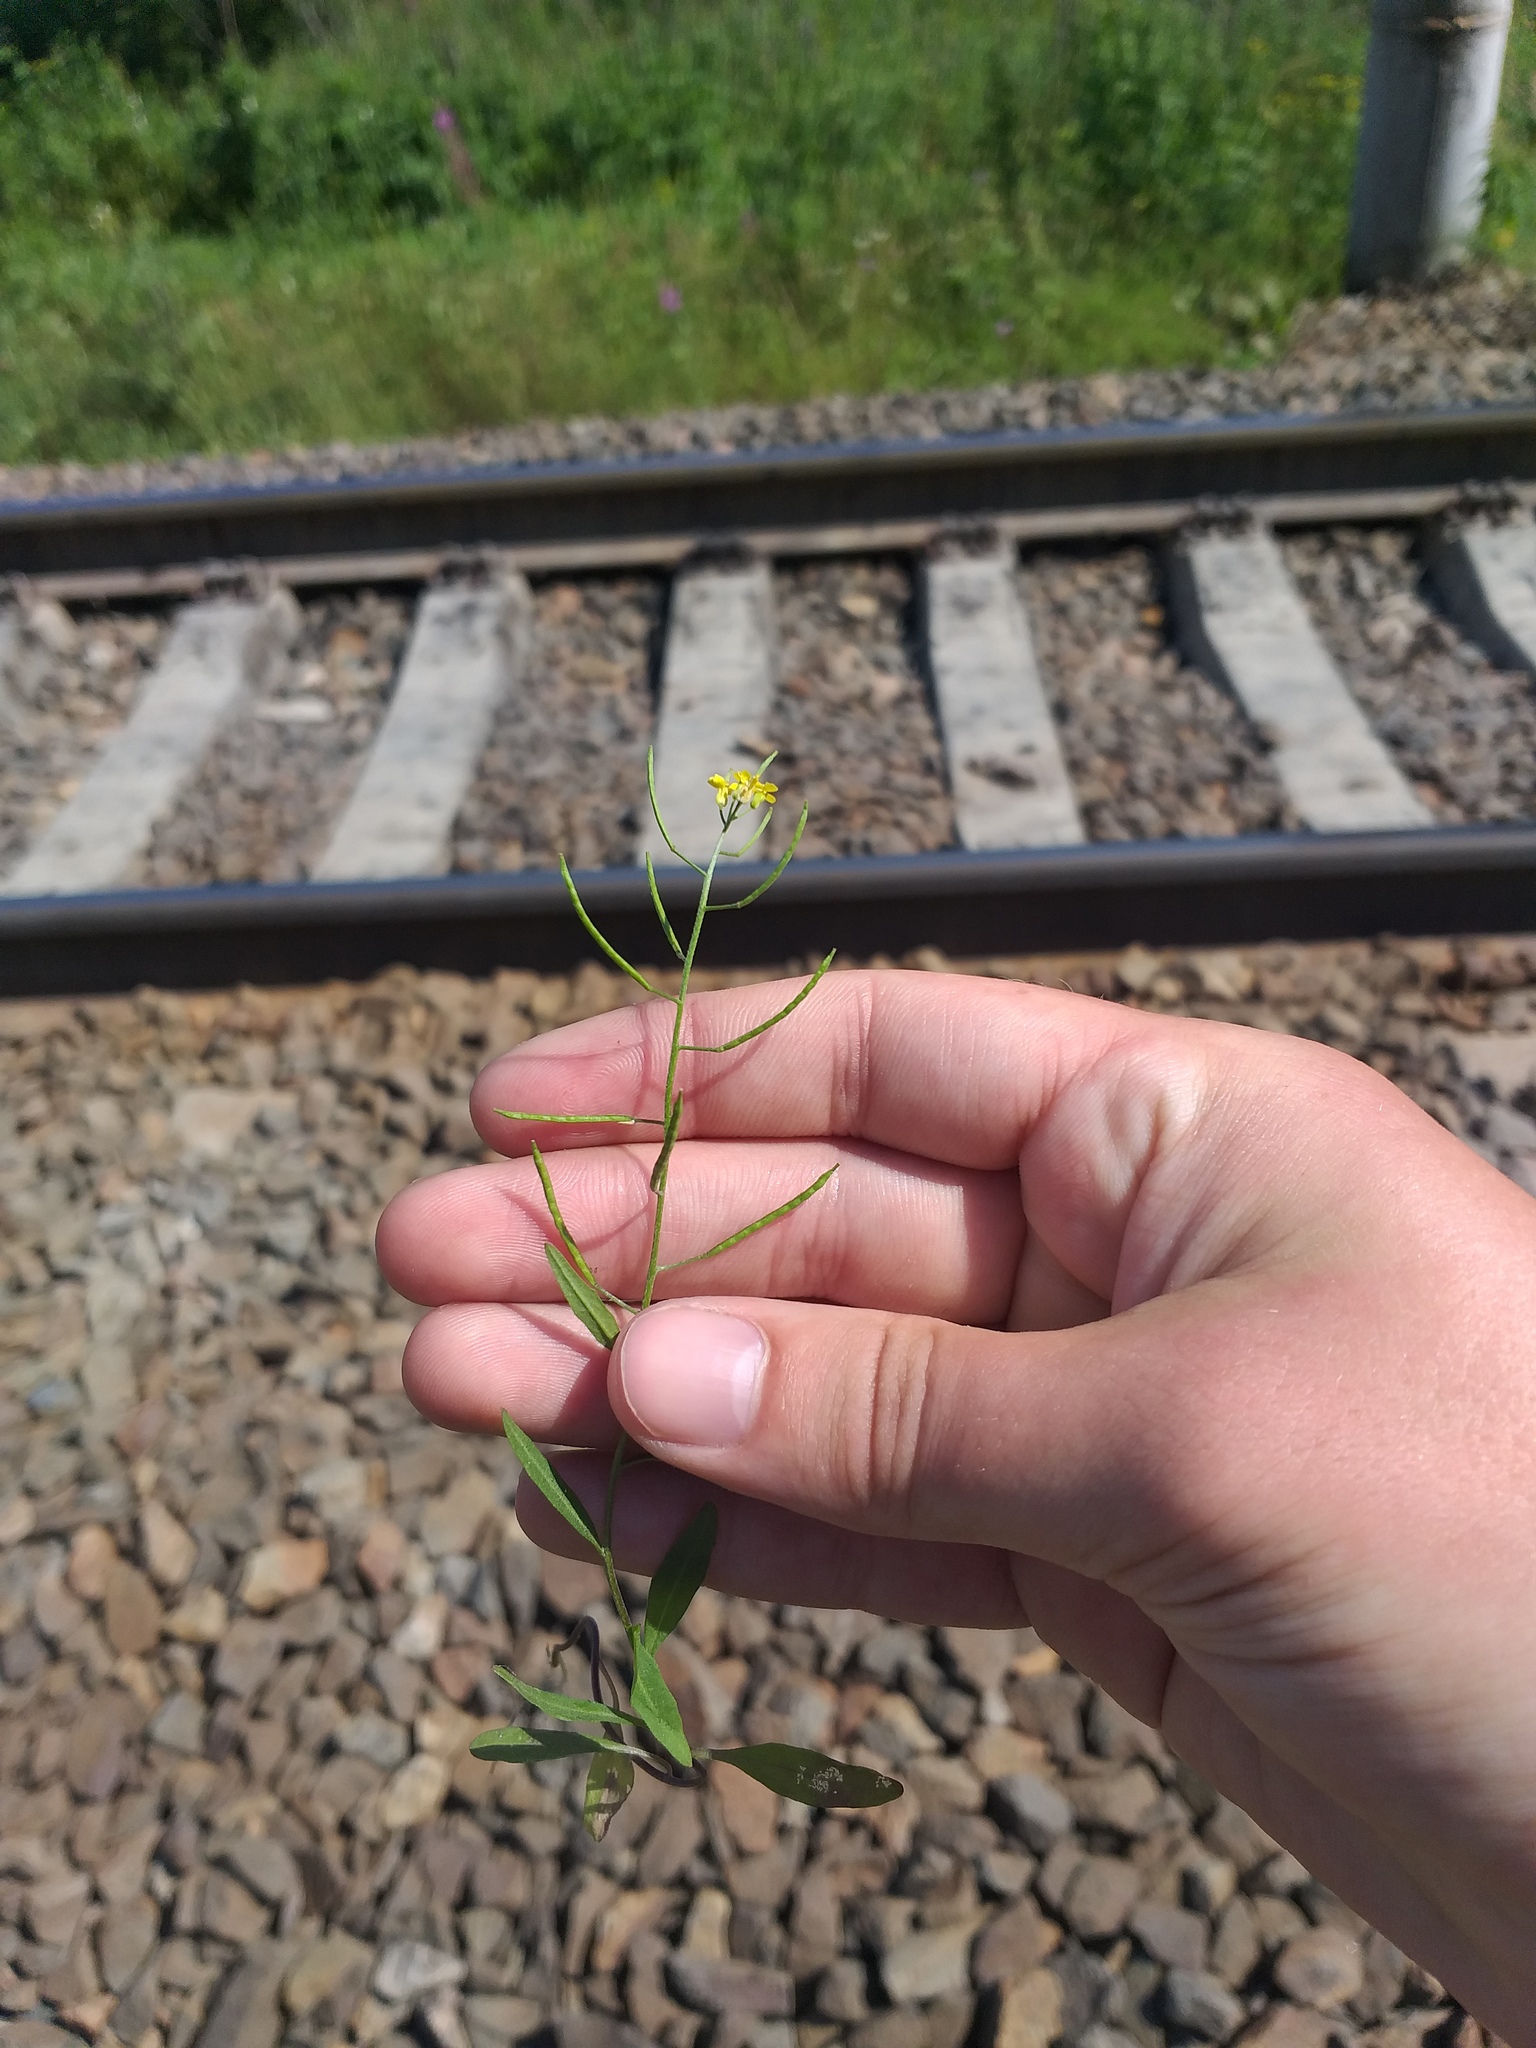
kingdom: Plantae
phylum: Tracheophyta
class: Magnoliopsida
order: Brassicales
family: Brassicaceae
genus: Erysimum
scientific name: Erysimum cheiranthoides
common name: Treacle mustard
